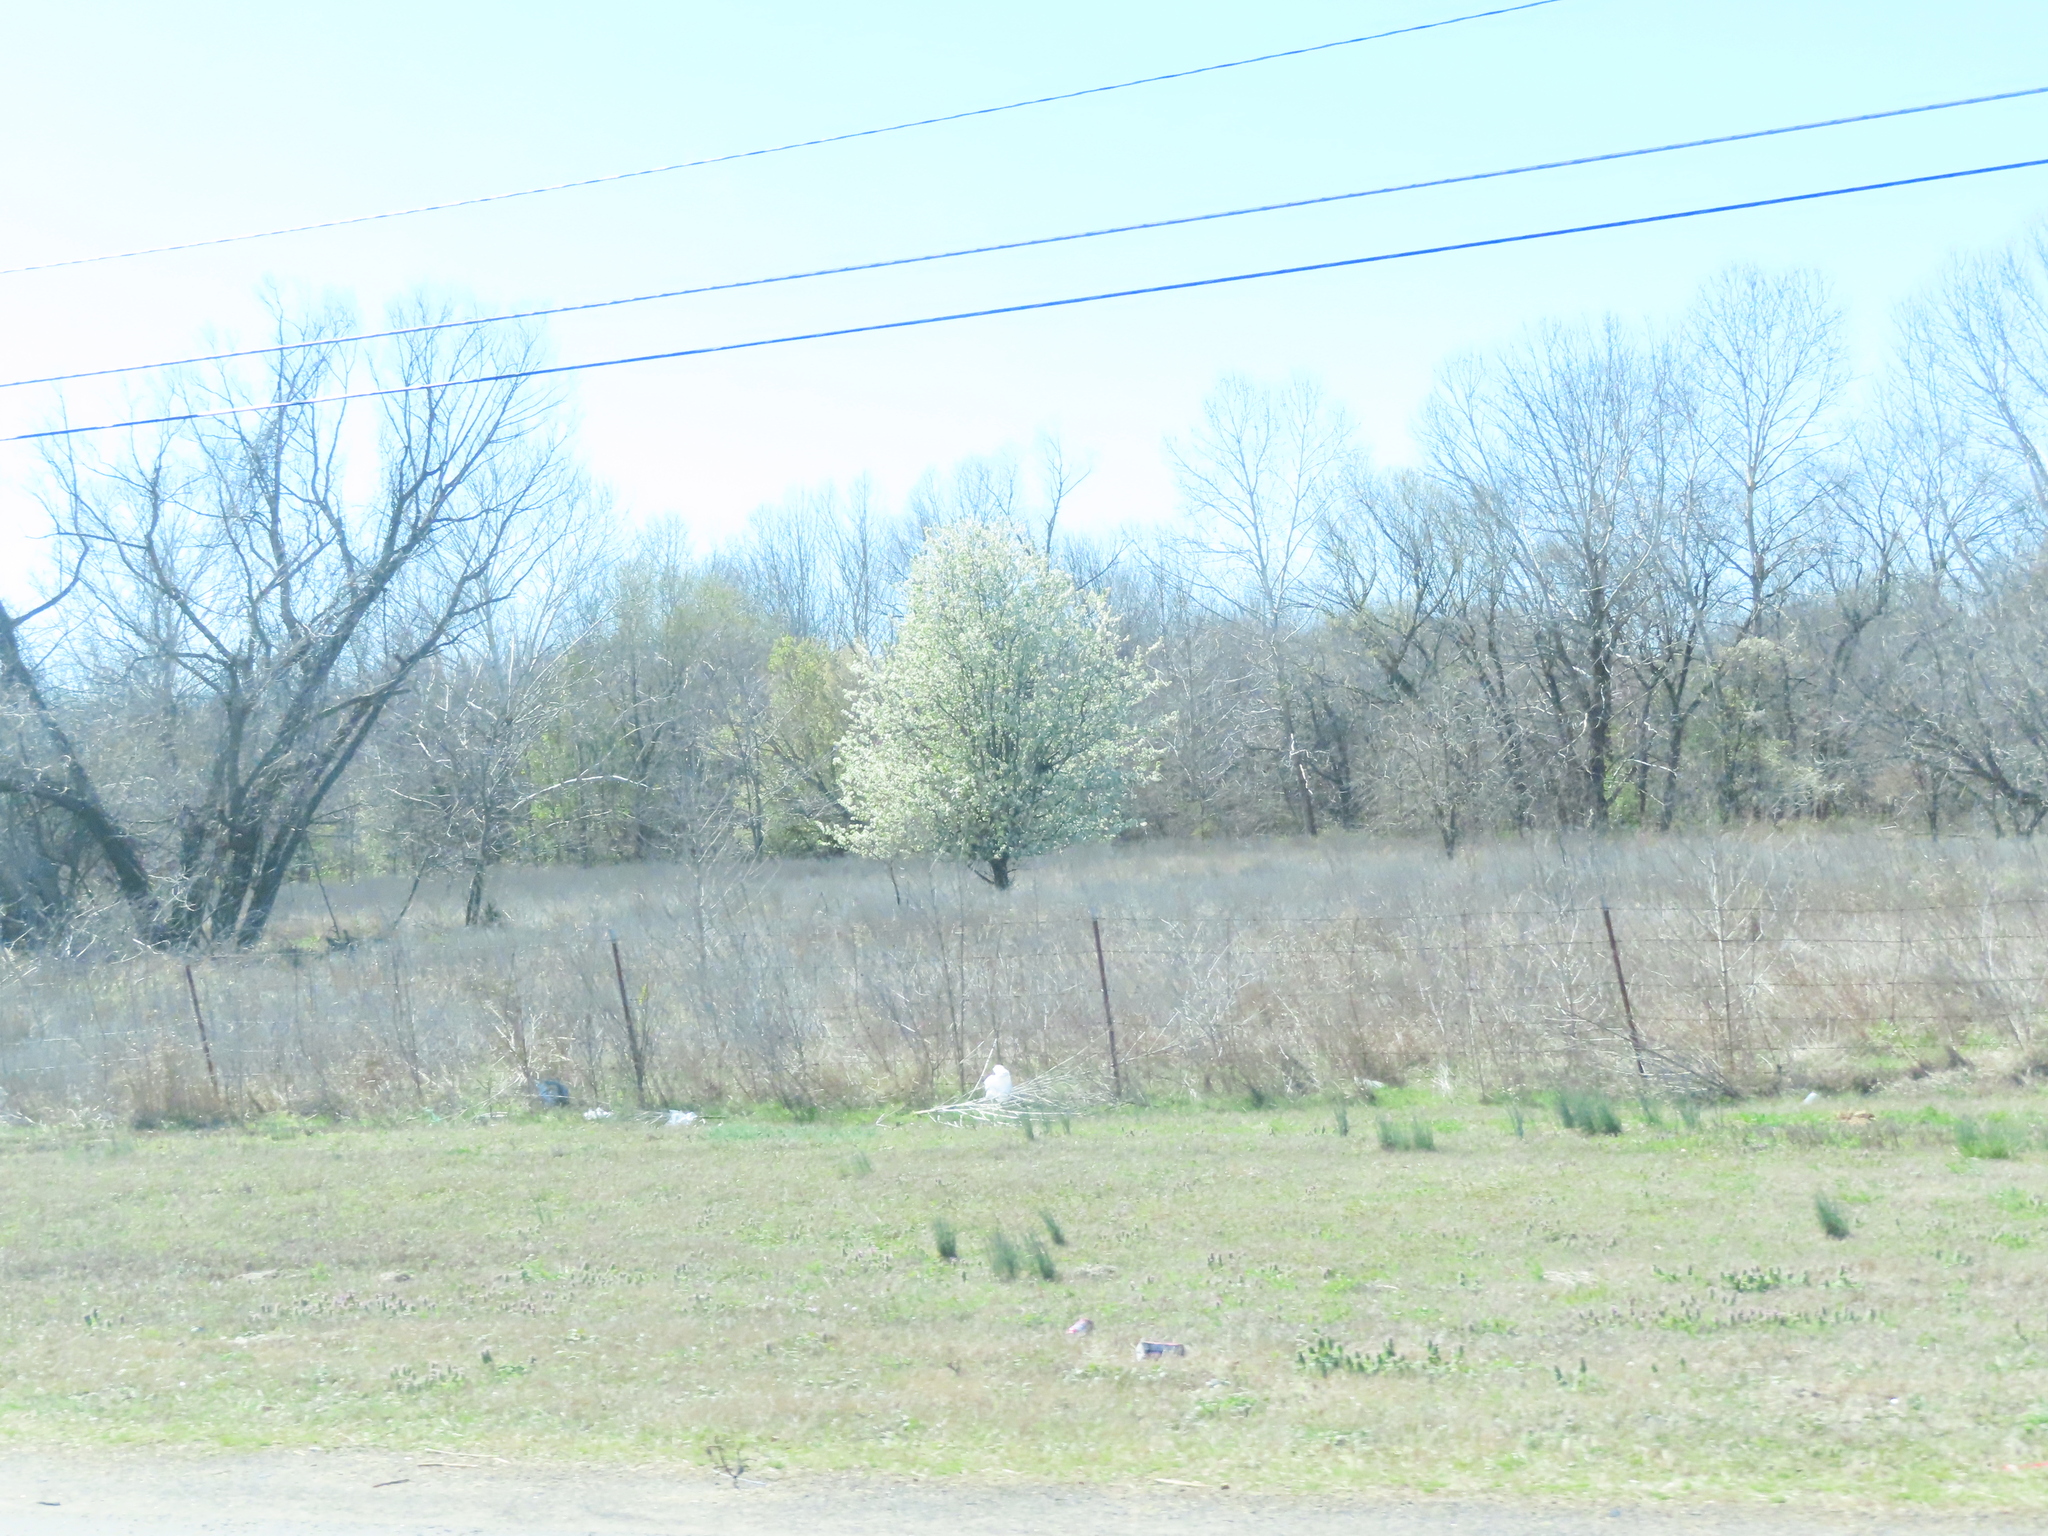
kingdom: Plantae
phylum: Tracheophyta
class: Magnoliopsida
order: Rosales
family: Rosaceae
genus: Pyrus
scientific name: Pyrus calleryana
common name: Callery pear
